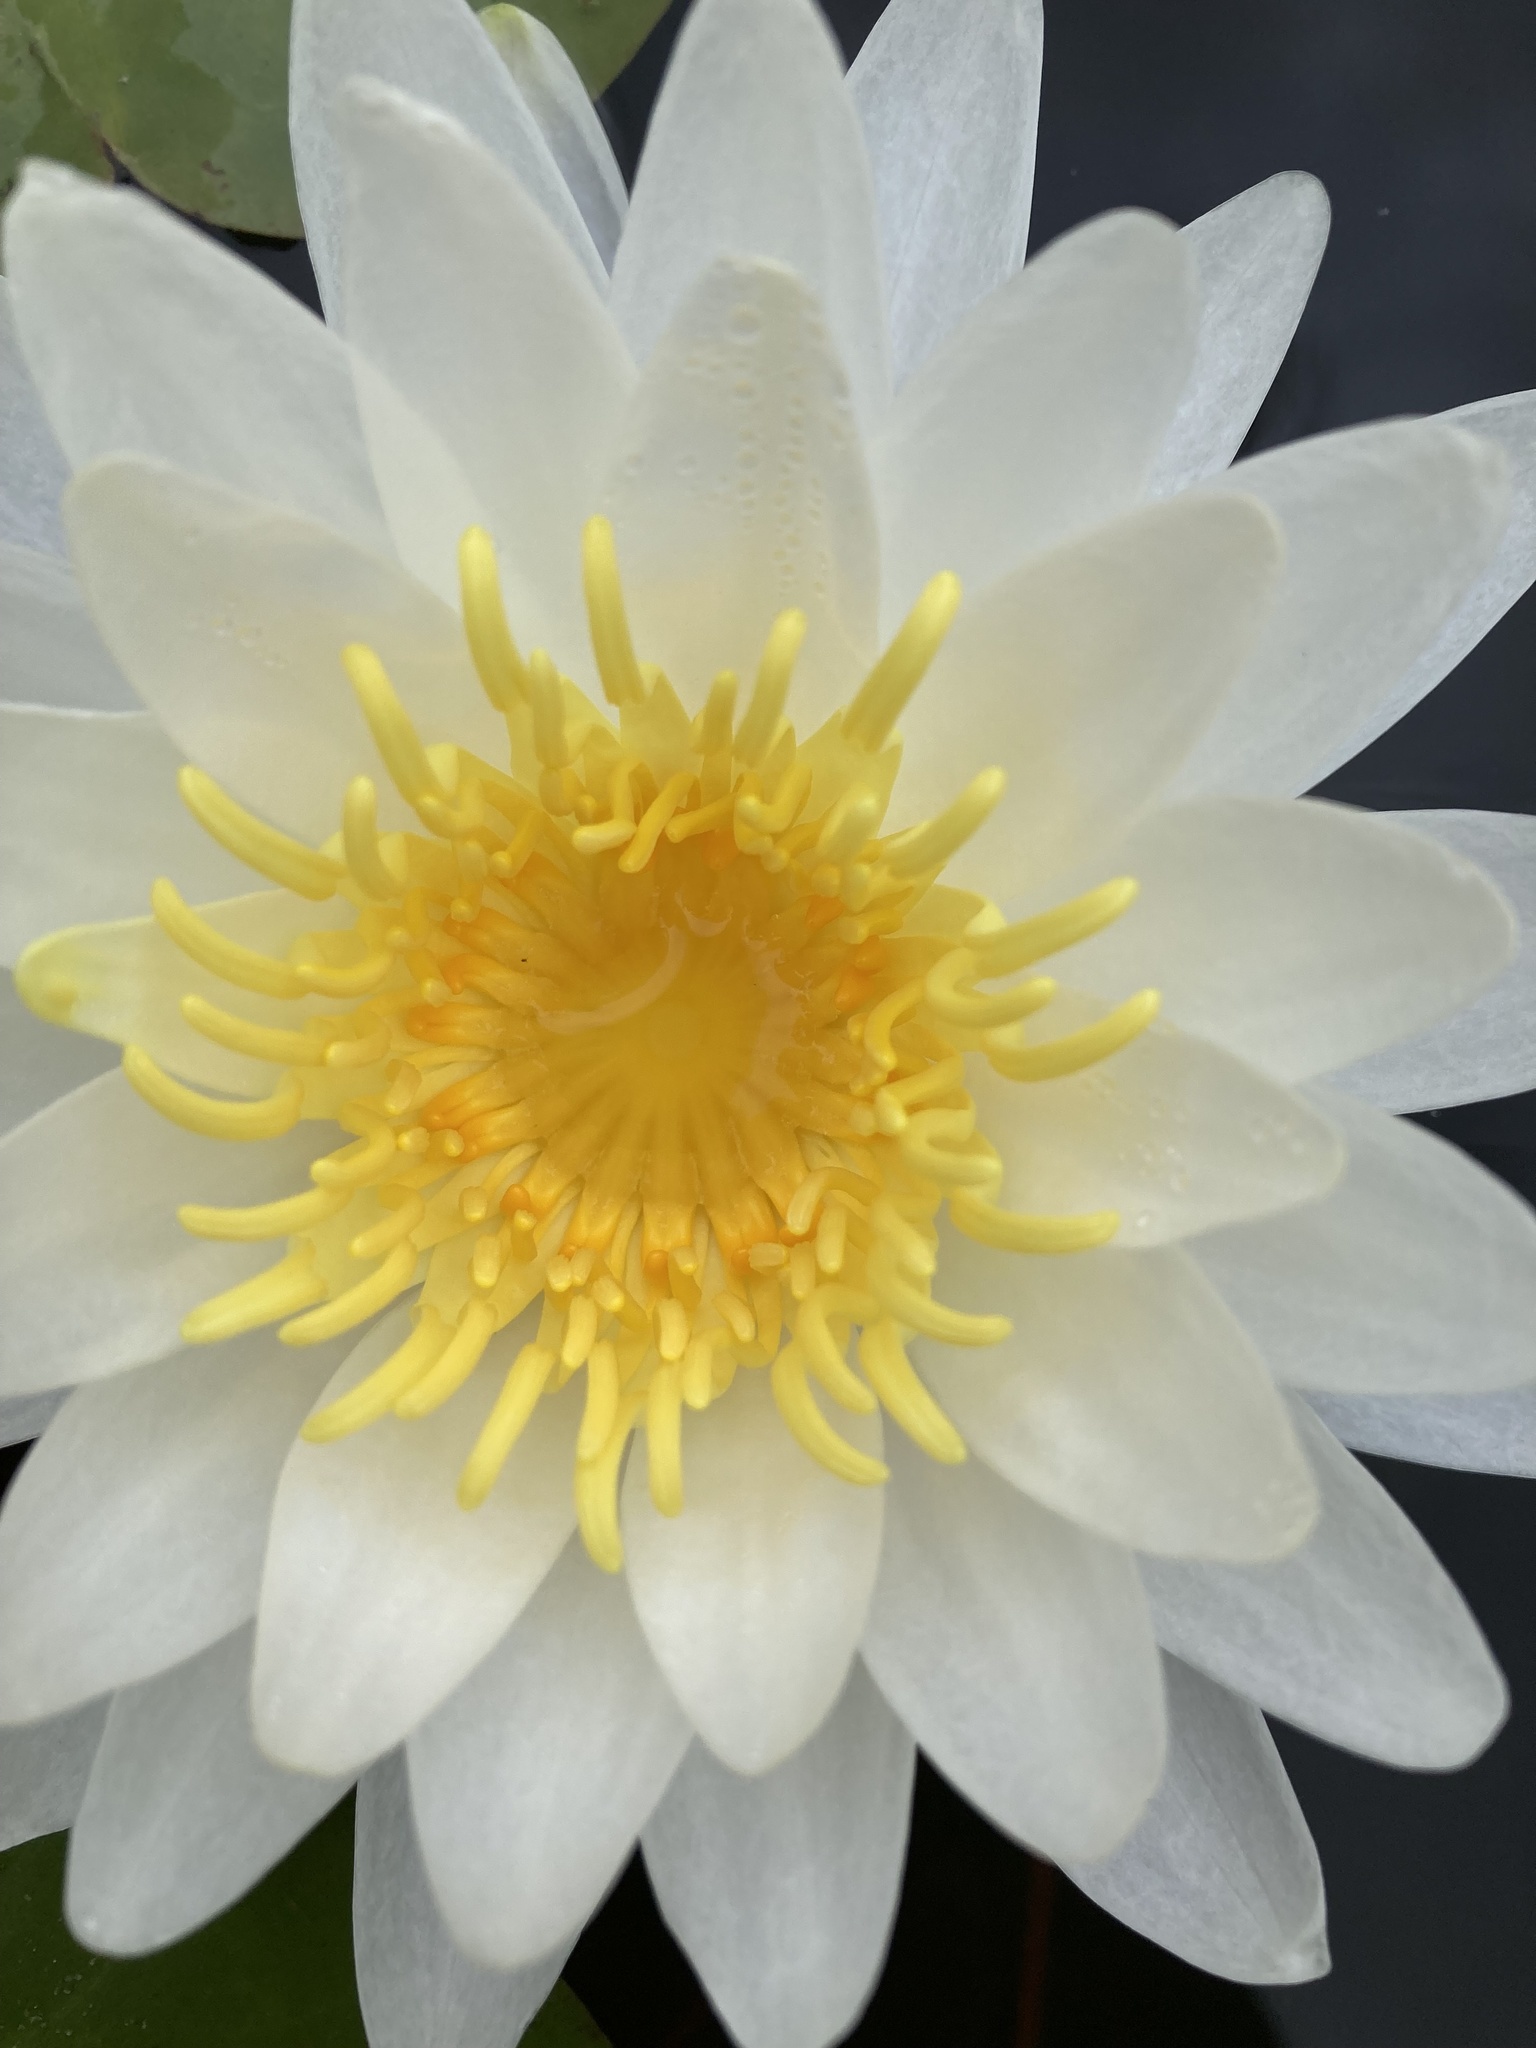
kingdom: Plantae
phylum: Tracheophyta
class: Magnoliopsida
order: Nymphaeales
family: Nymphaeaceae
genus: Nymphaea
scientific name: Nymphaea odorata
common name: Fragrant water-lily
